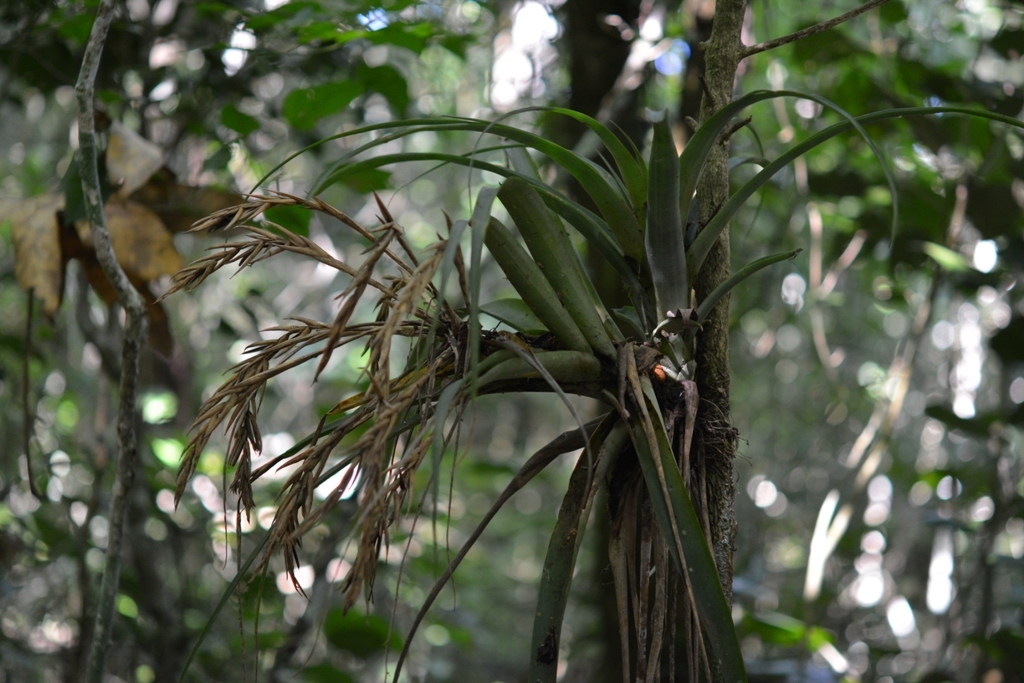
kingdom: Plantae
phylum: Tracheophyta
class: Liliopsida
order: Poales
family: Bromeliaceae
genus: Tillandsia
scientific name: Tillandsia flabellata
